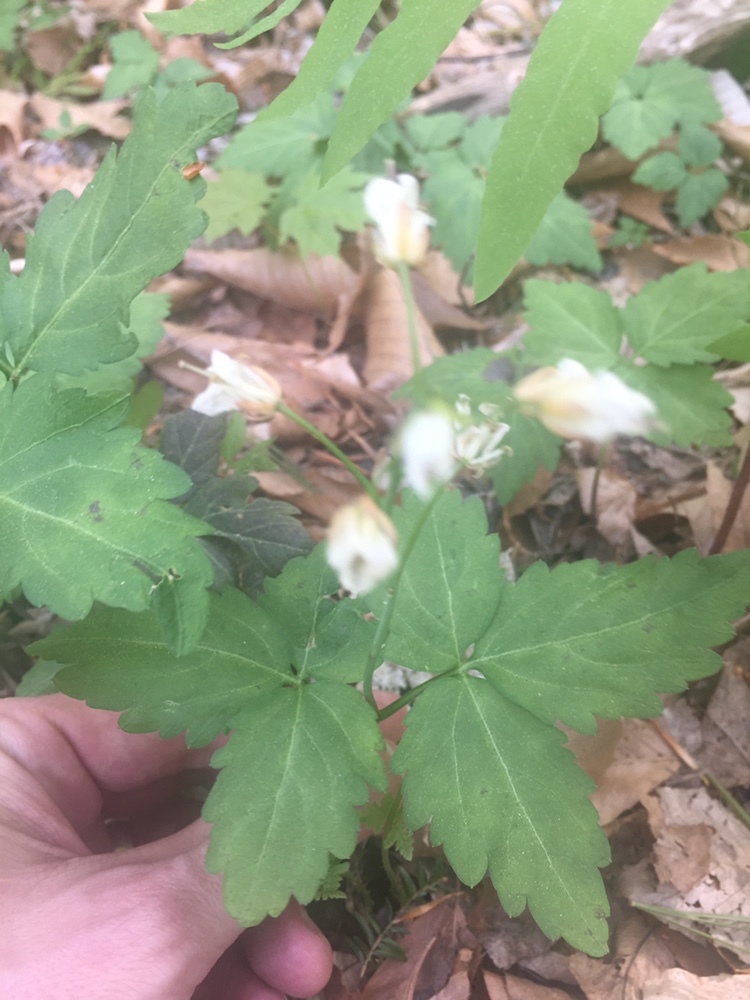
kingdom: Plantae
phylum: Tracheophyta
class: Magnoliopsida
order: Brassicales
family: Brassicaceae
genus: Cardamine
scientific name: Cardamine diphylla
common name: Broad-leaved toothwort
